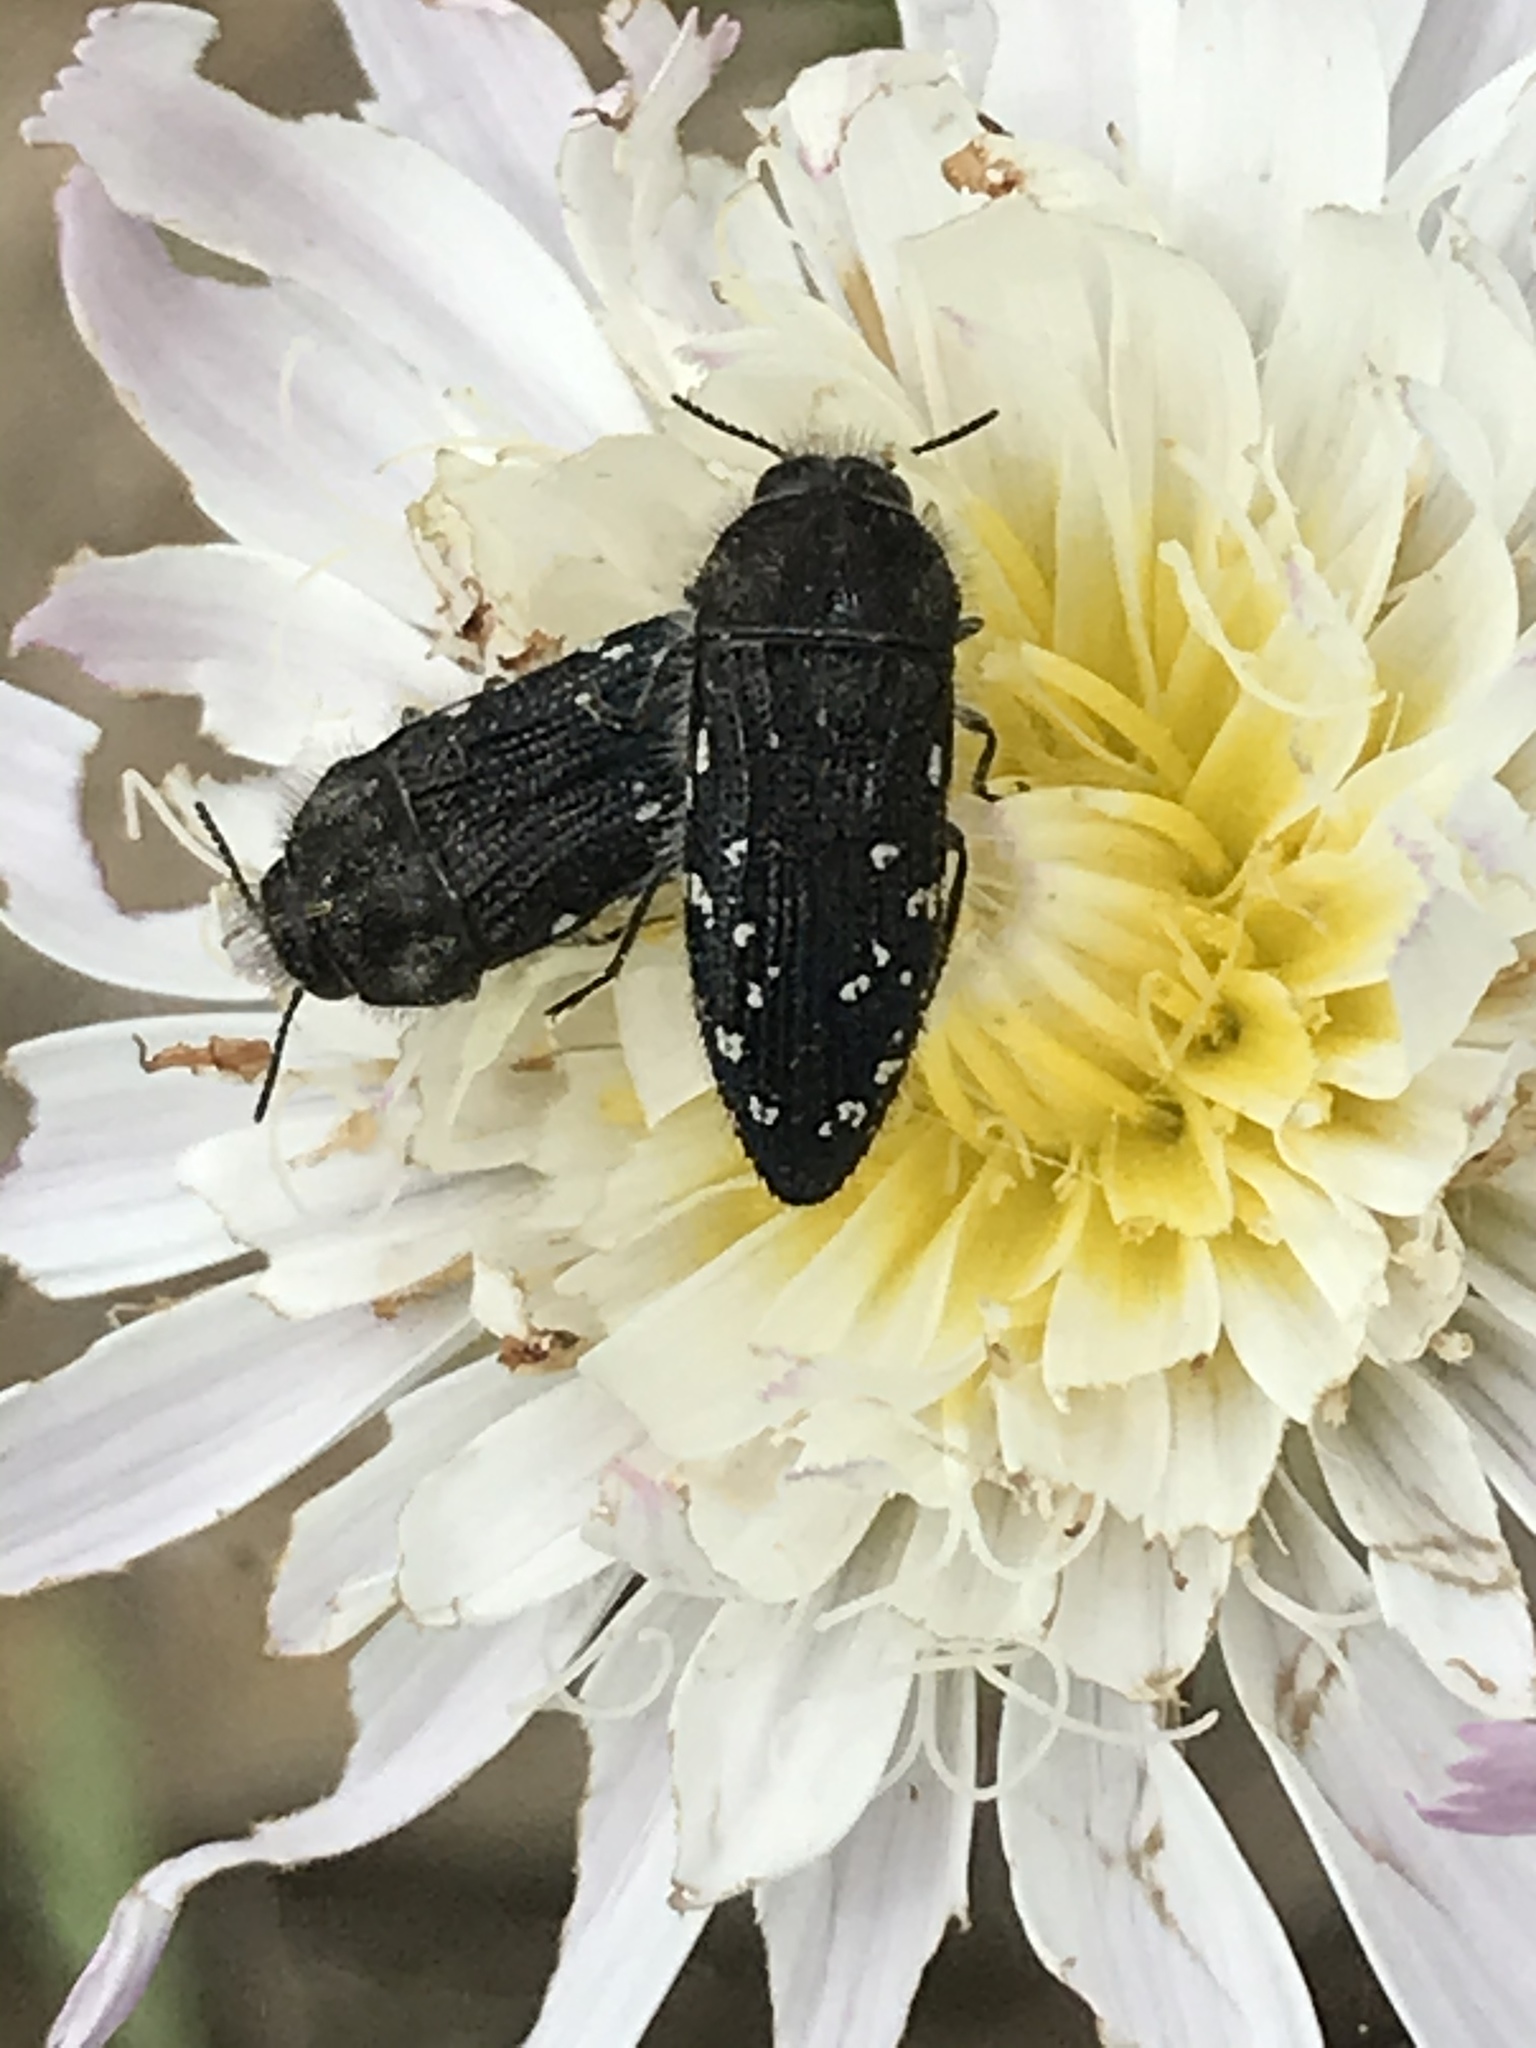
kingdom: Animalia
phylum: Arthropoda
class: Insecta
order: Coleoptera
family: Buprestidae
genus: Acmaeodera
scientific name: Acmaeodera ornatoides
